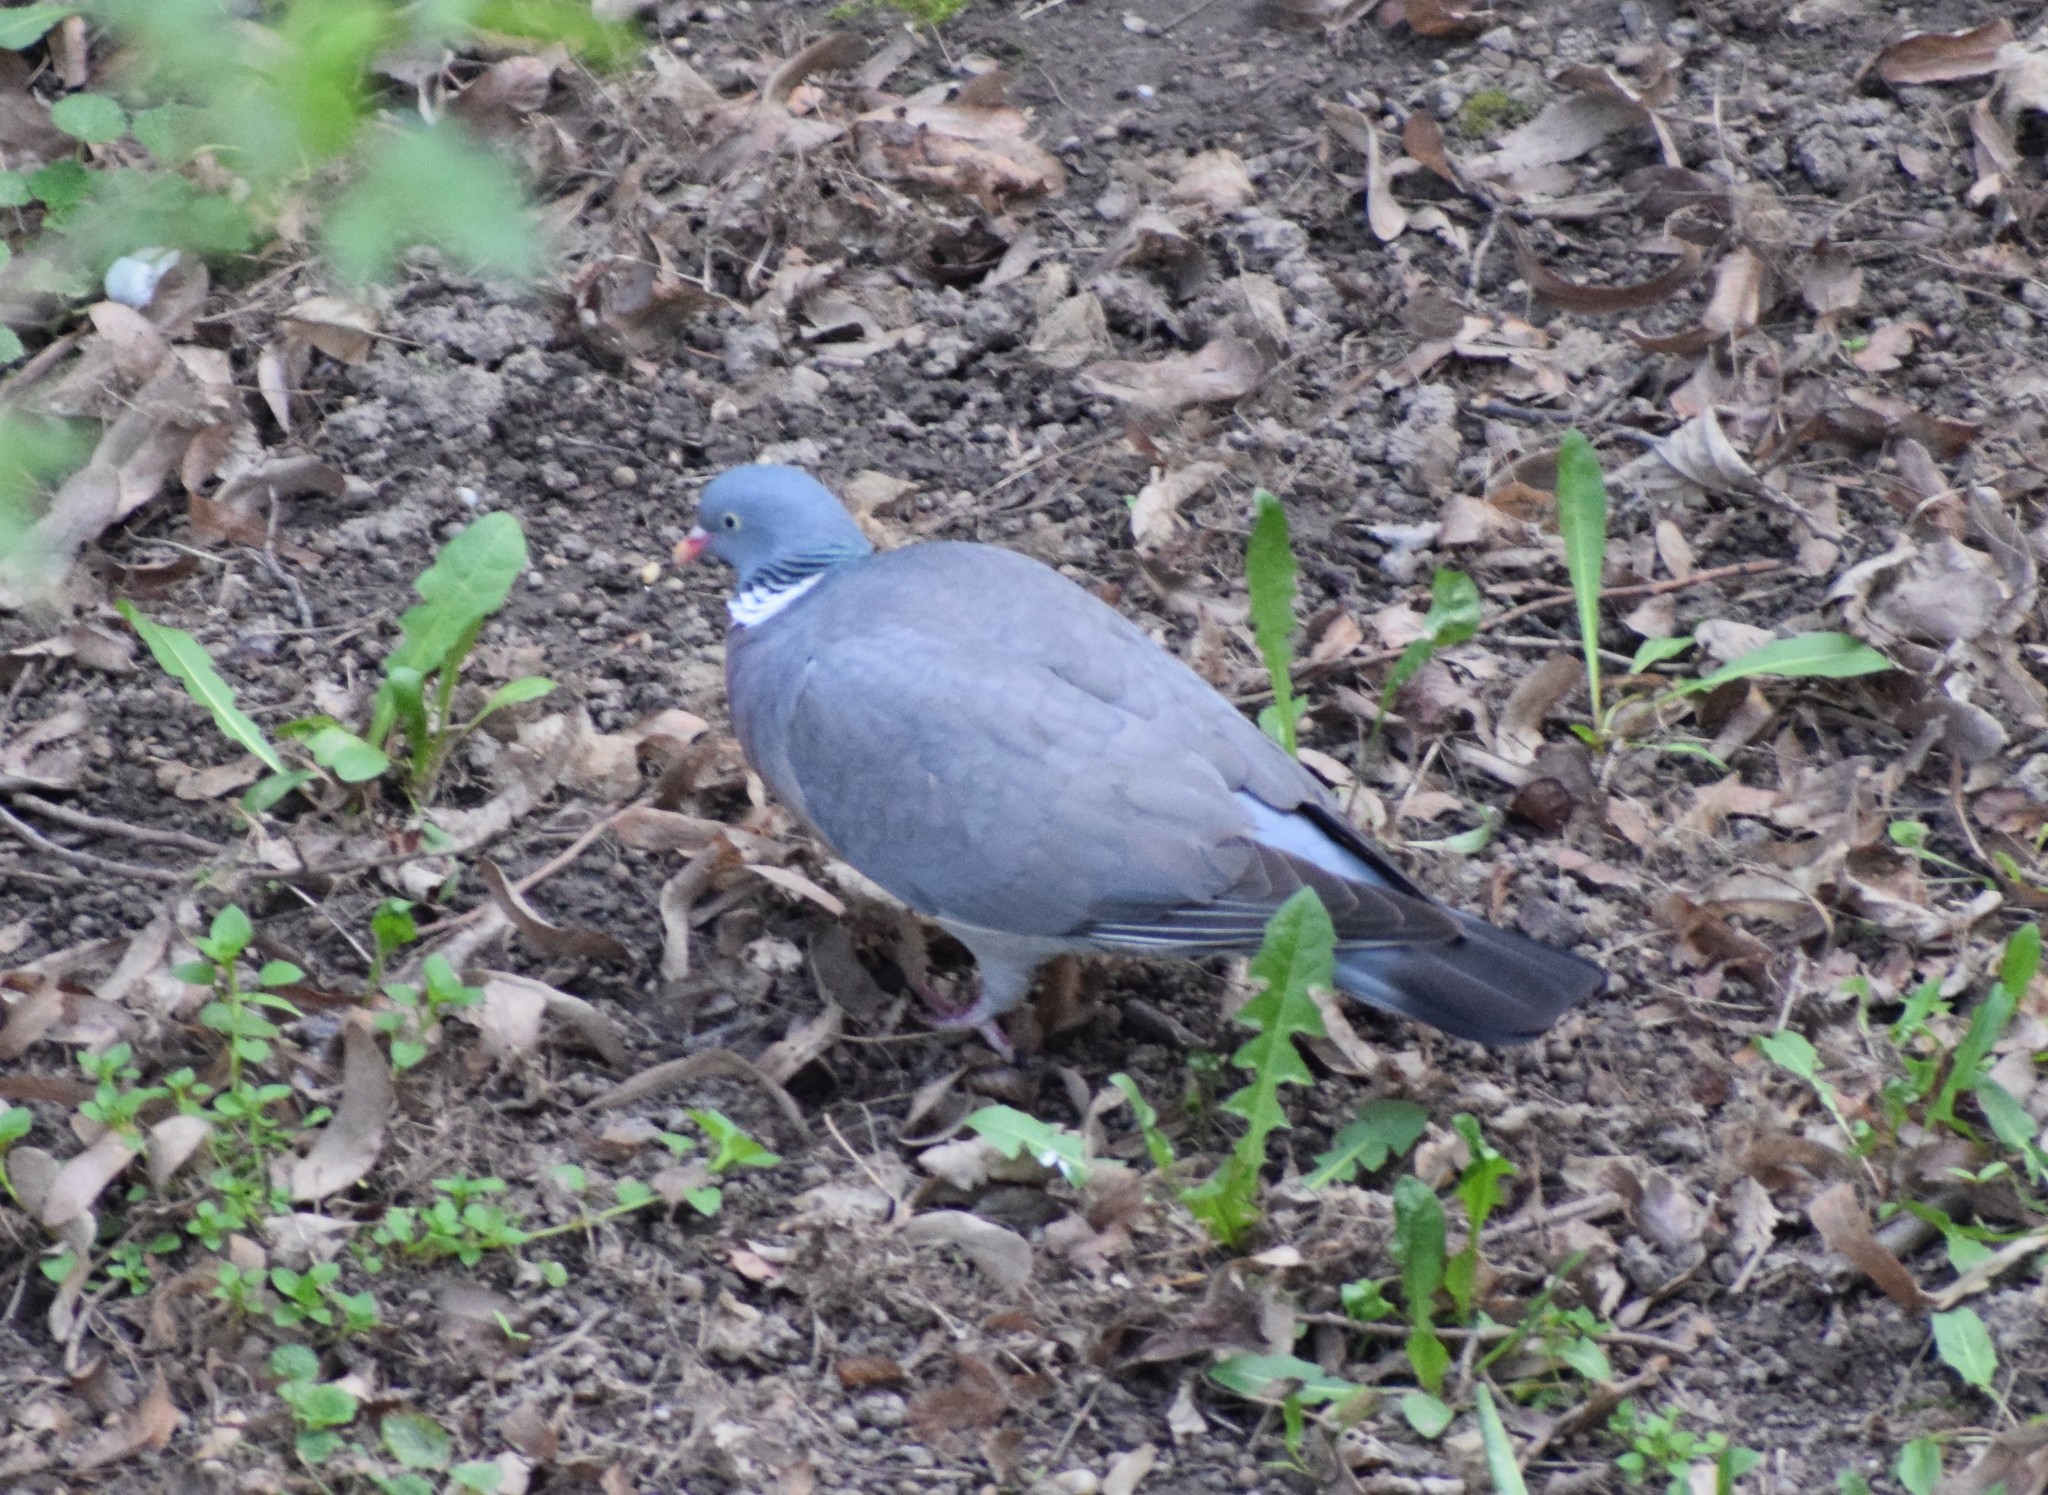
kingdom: Animalia
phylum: Chordata
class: Aves
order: Columbiformes
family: Columbidae
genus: Columba
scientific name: Columba palumbus
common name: Common wood pigeon
